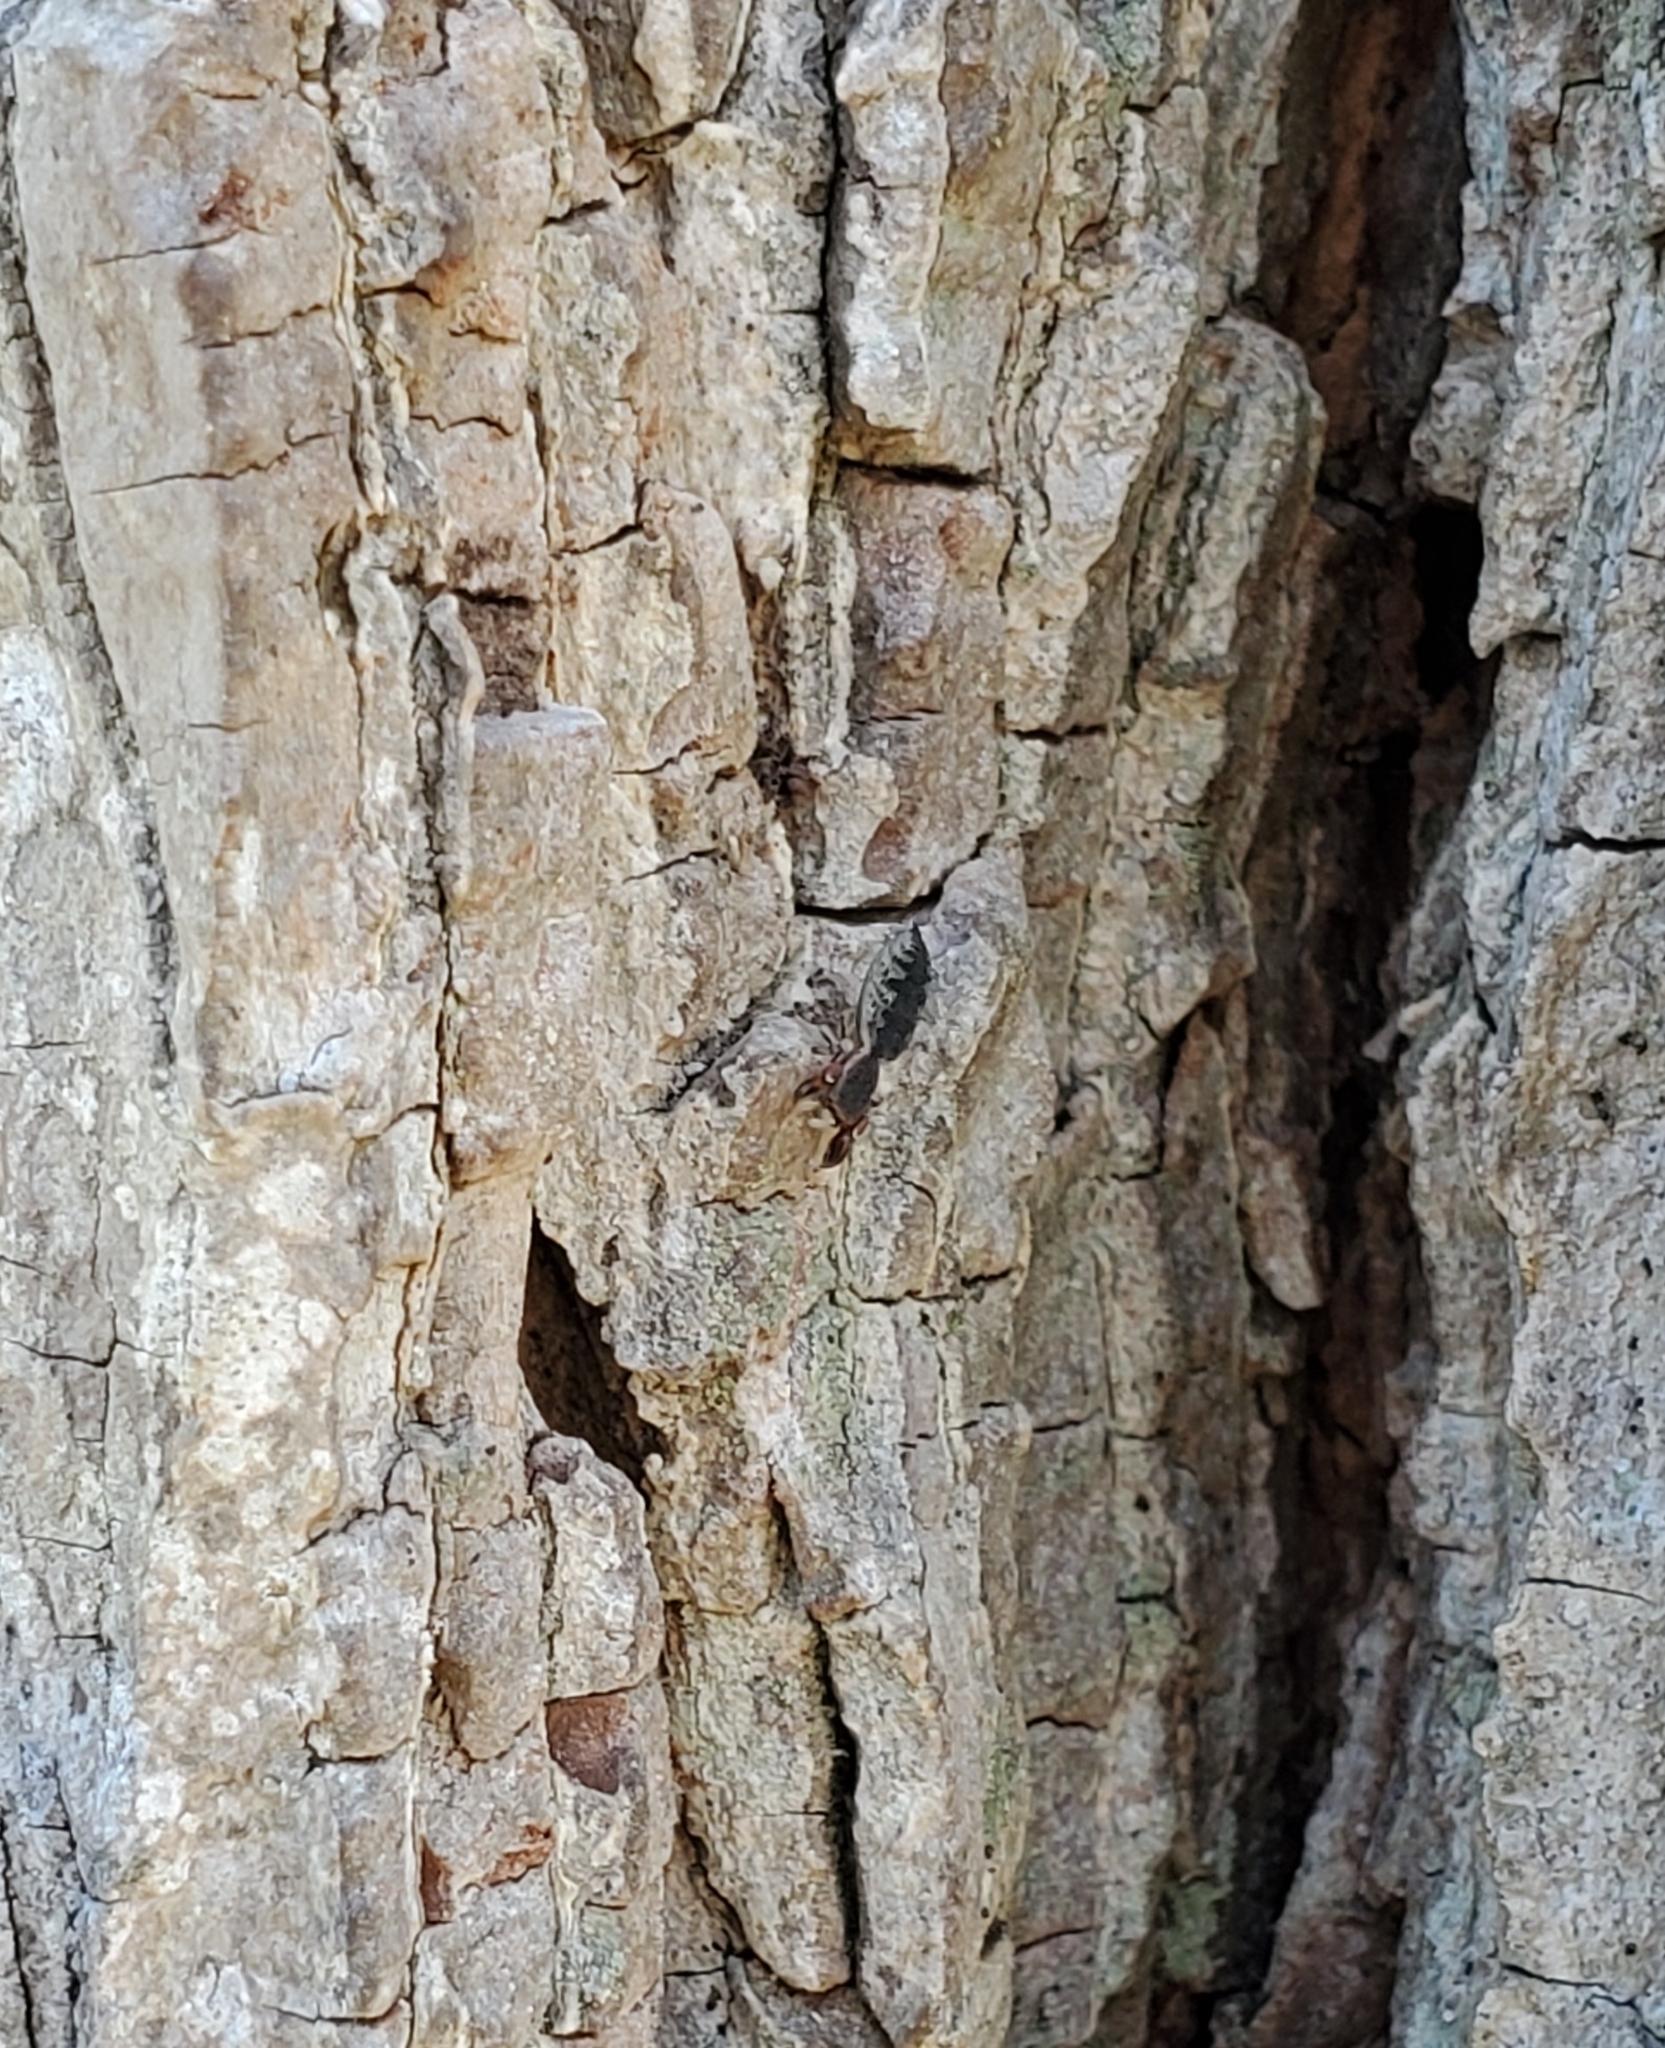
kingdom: Animalia
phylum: Arthropoda
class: Arachnida
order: Araneae
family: Salticidae
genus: Cheliferoides
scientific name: Cheliferoides segmentatus
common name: Jumping spiders
